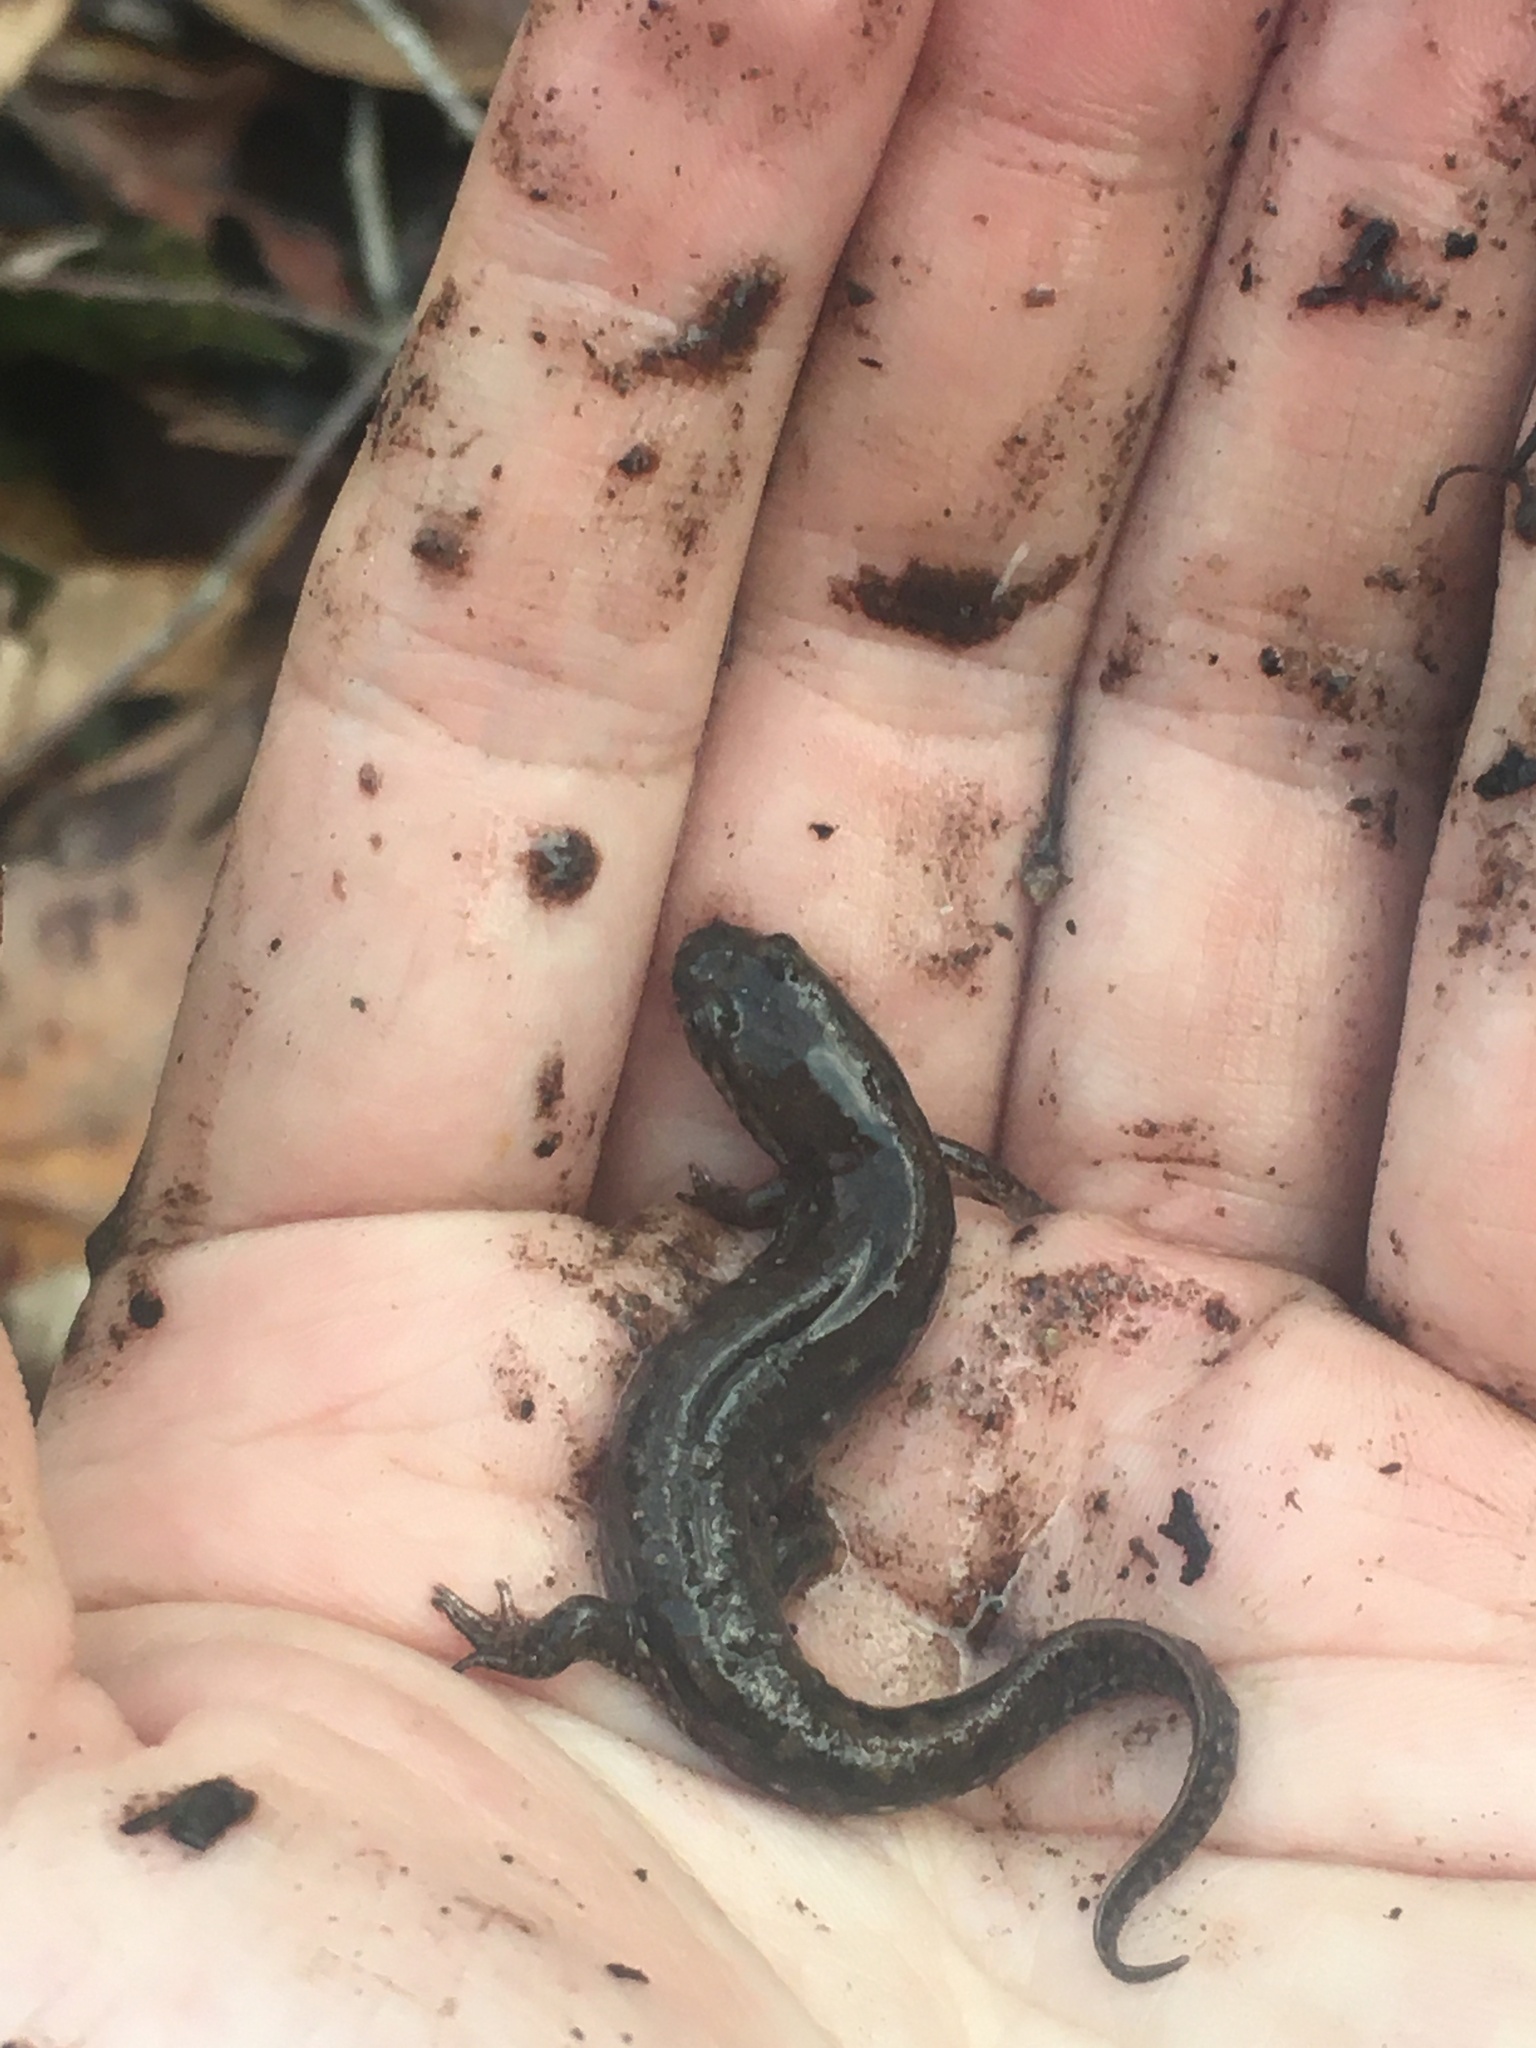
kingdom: Animalia
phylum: Chordata
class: Amphibia
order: Caudata
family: Plethodontidae
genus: Desmognathus
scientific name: Desmognathus
